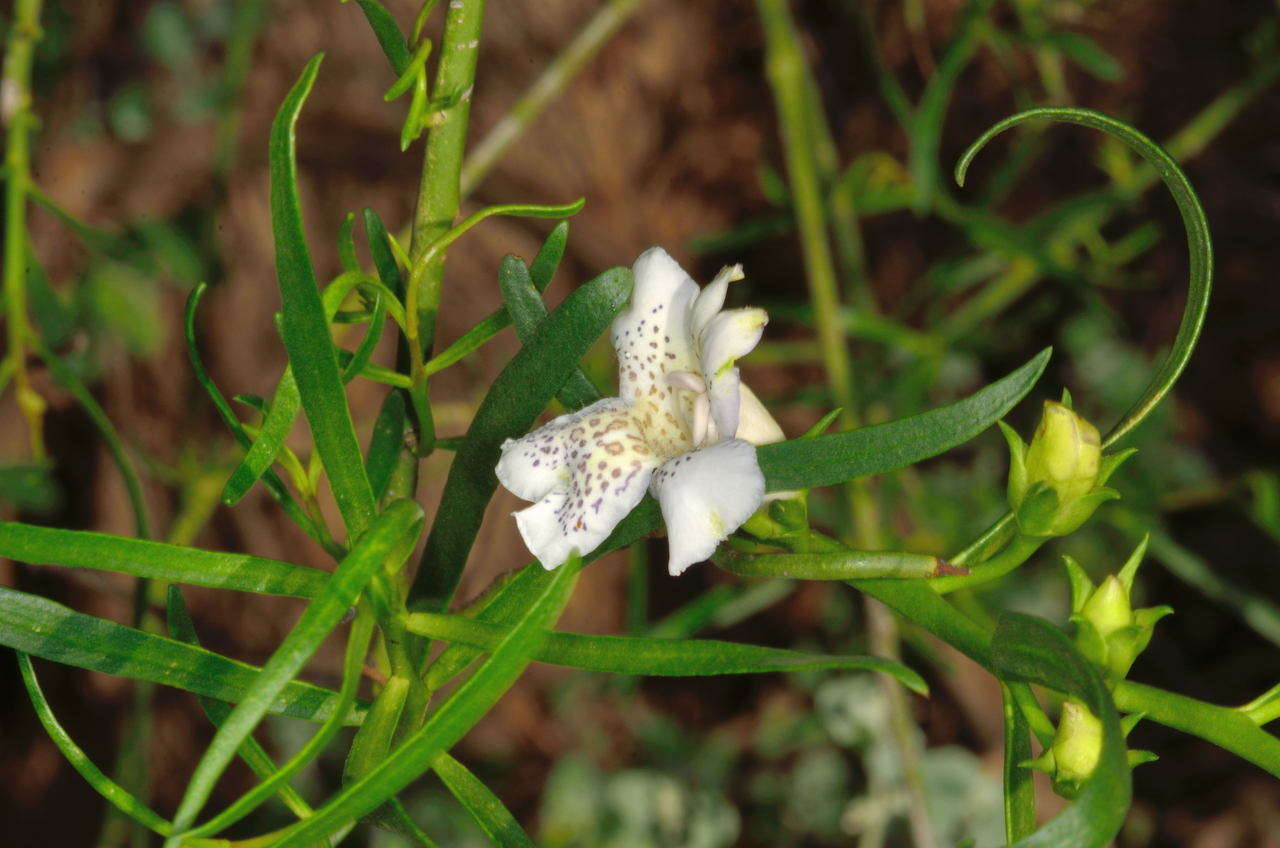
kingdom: Plantae
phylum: Tracheophyta
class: Magnoliopsida
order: Lamiales
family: Scrophulariaceae
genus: Eremophila
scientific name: Eremophila polyclada
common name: Lignum-fuchsia
